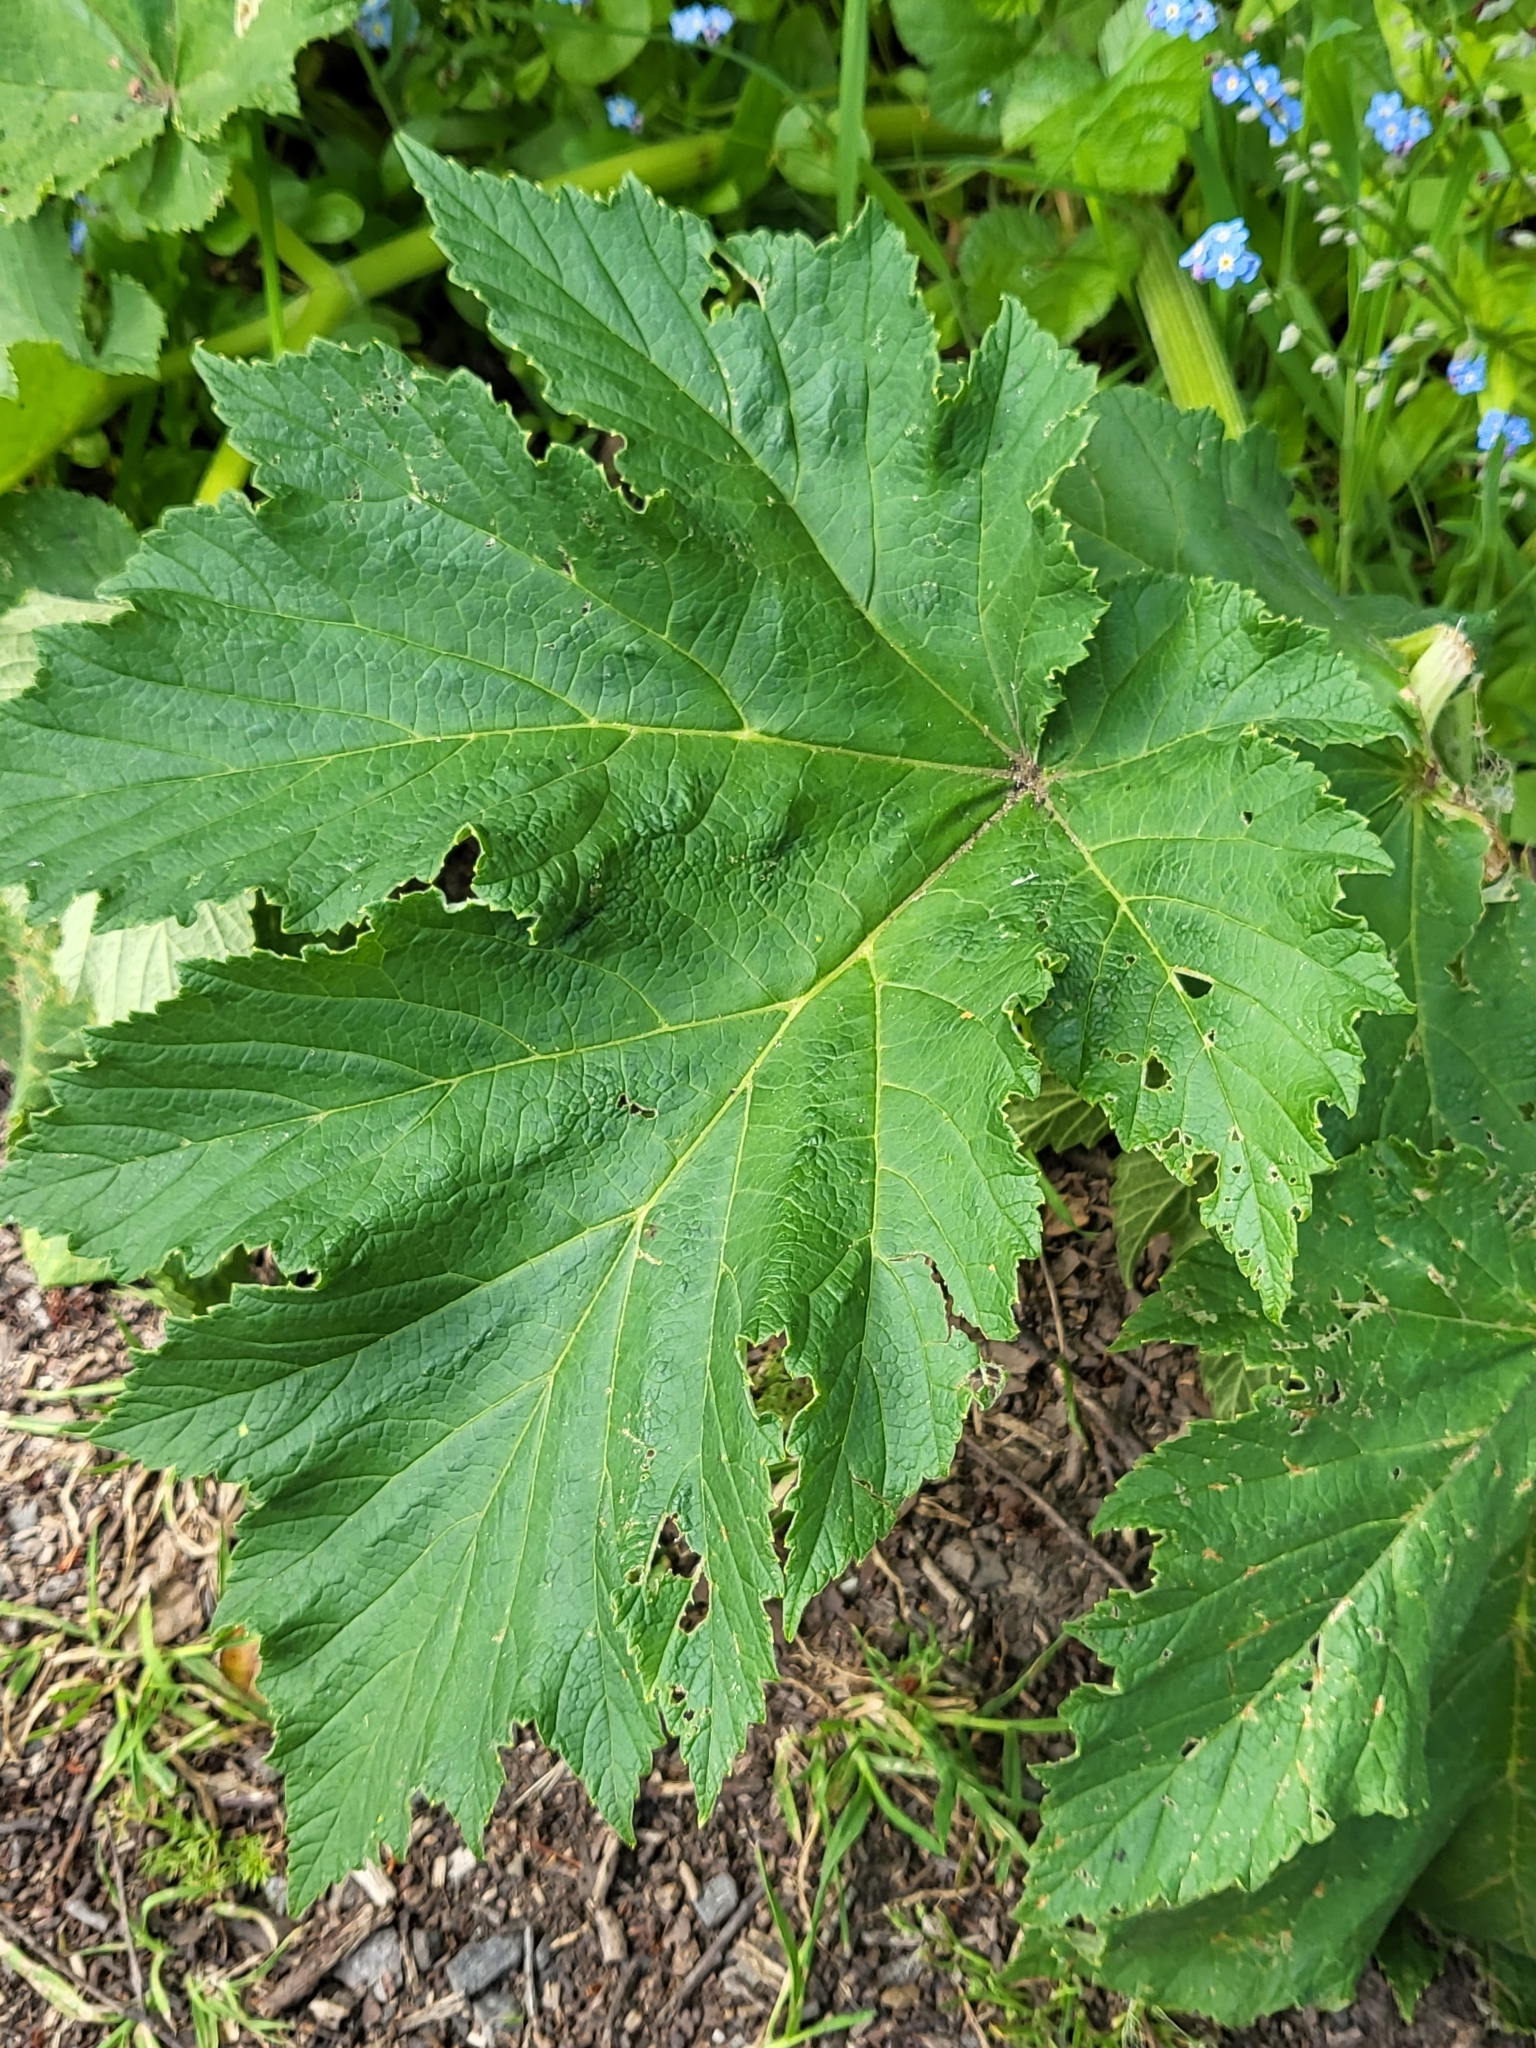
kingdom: Plantae
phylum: Tracheophyta
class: Magnoliopsida
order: Apiales
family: Apiaceae
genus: Heracleum
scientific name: Heracleum maximum
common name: American cow parsnip
